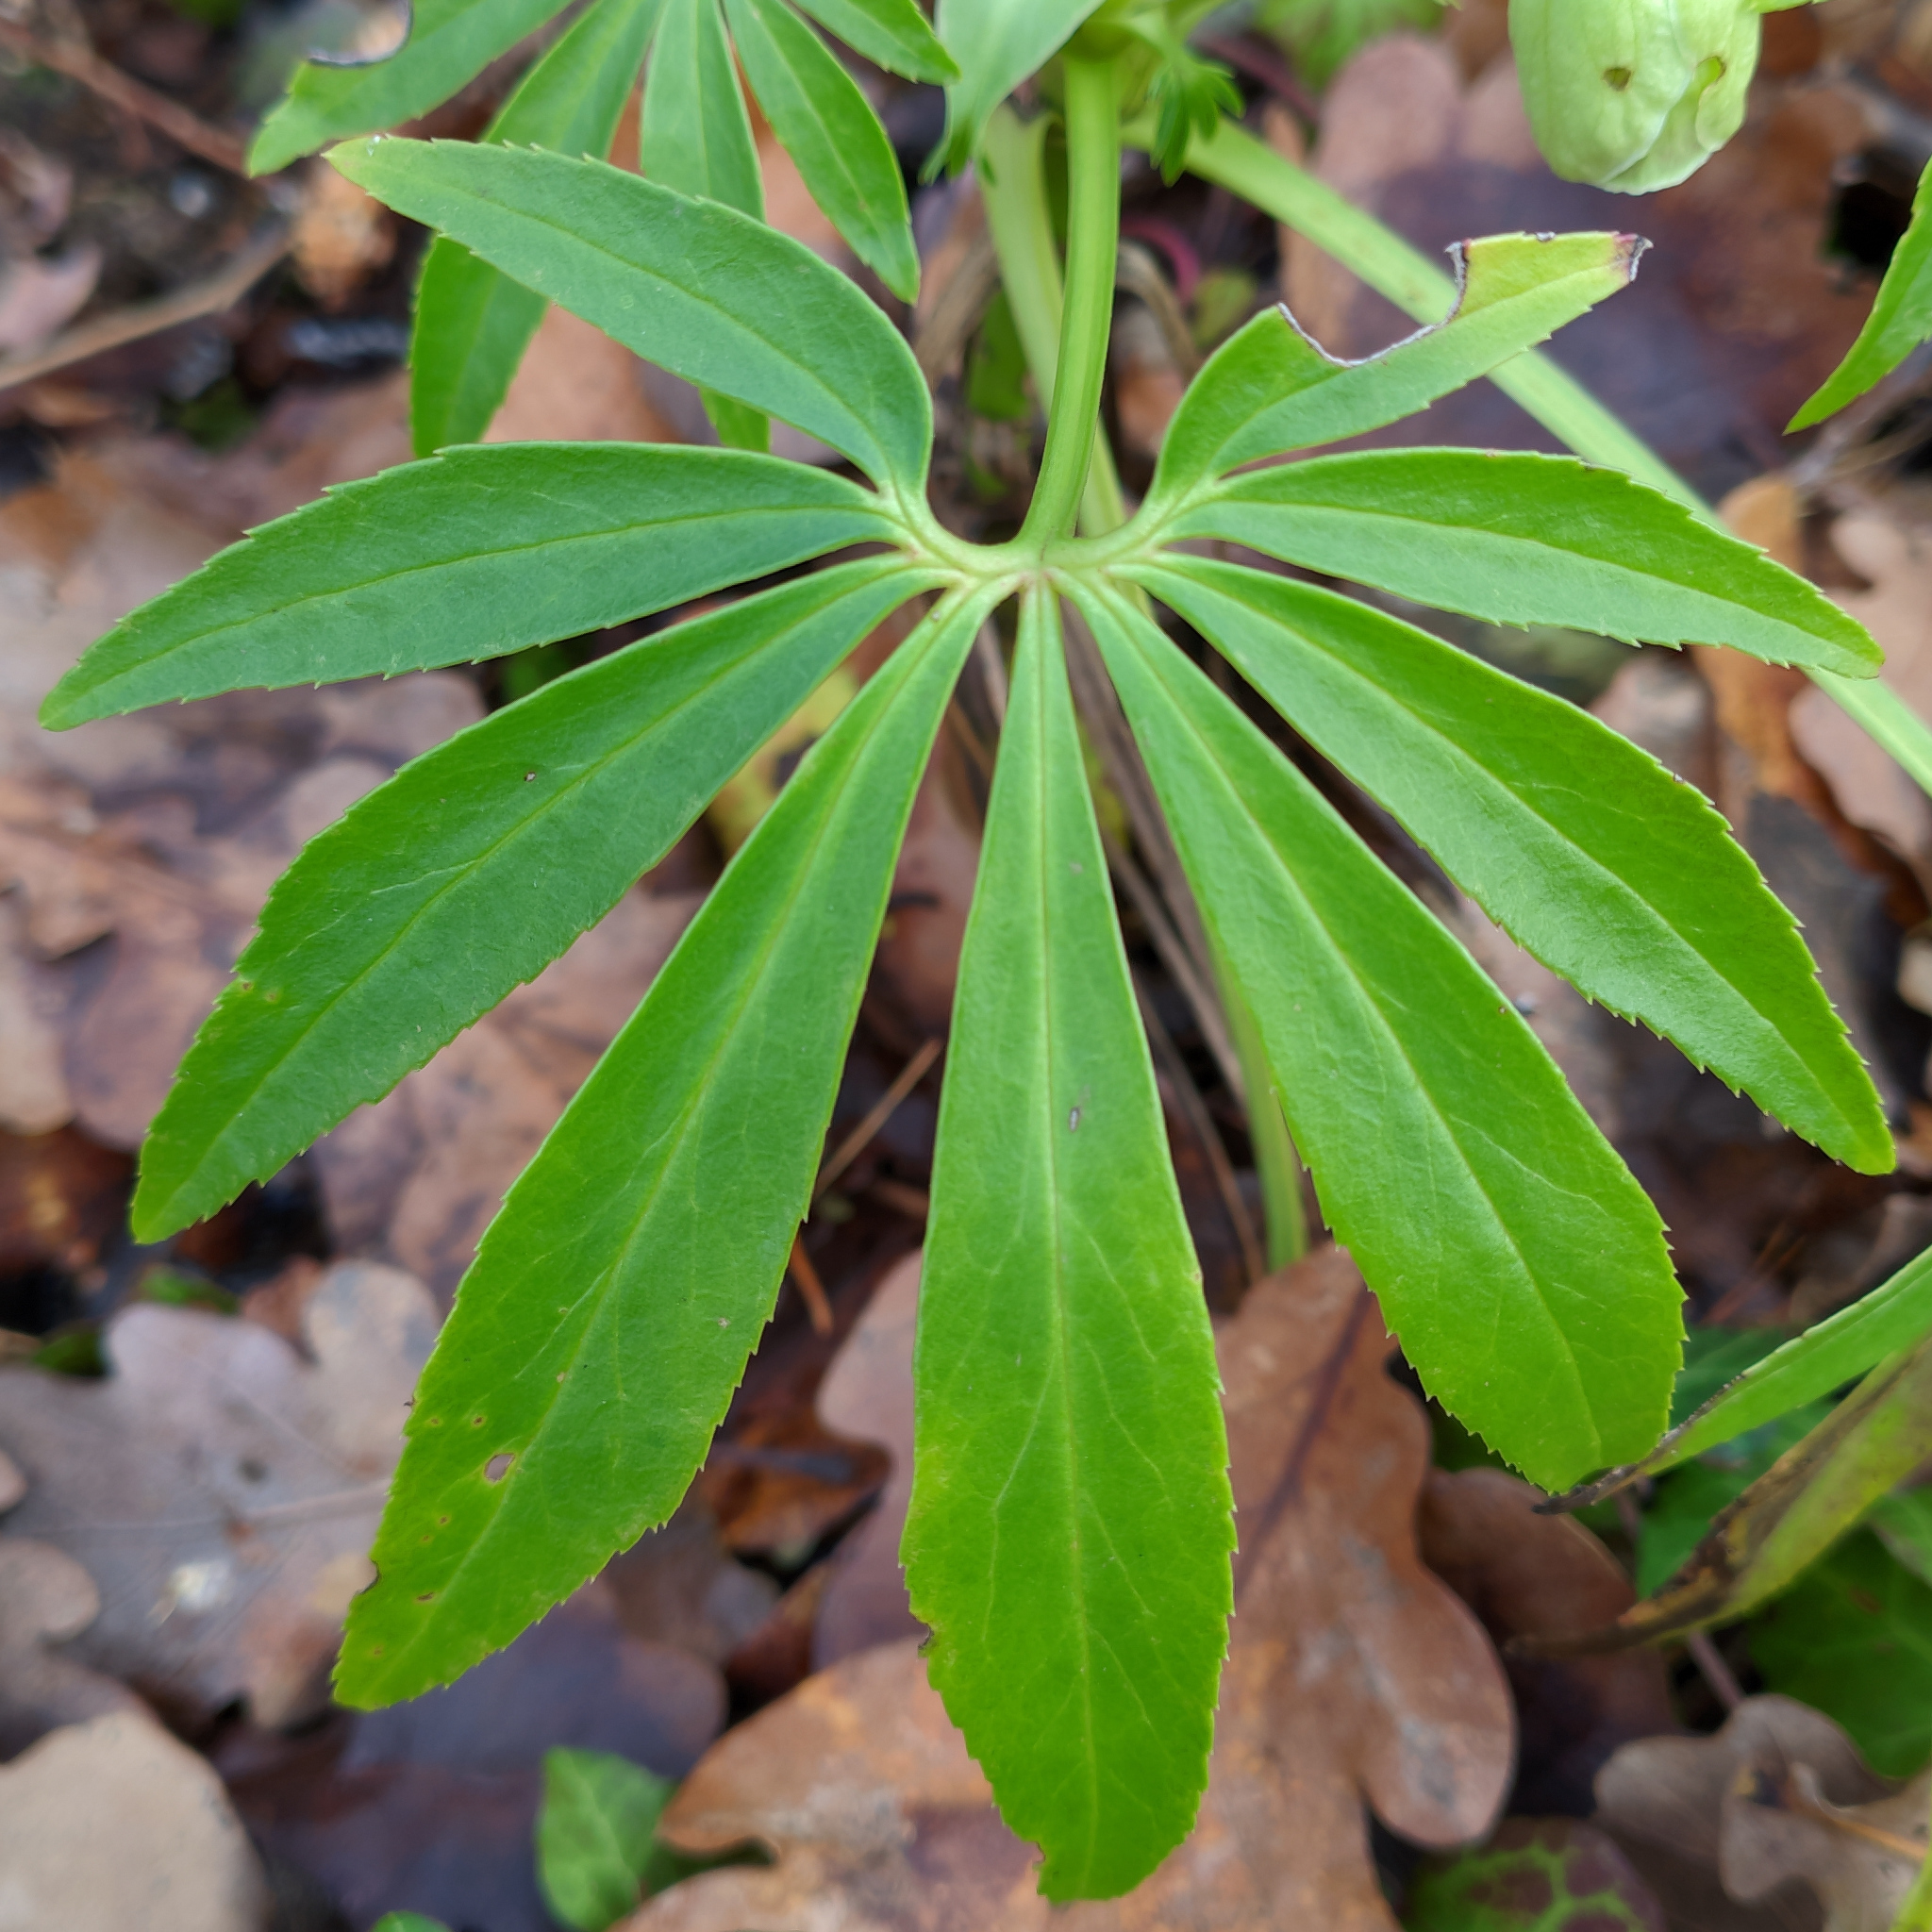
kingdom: Plantae
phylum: Tracheophyta
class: Magnoliopsida
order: Ranunculales
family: Ranunculaceae
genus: Helleborus
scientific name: Helleborus foetidus
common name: Stinking hellebore
